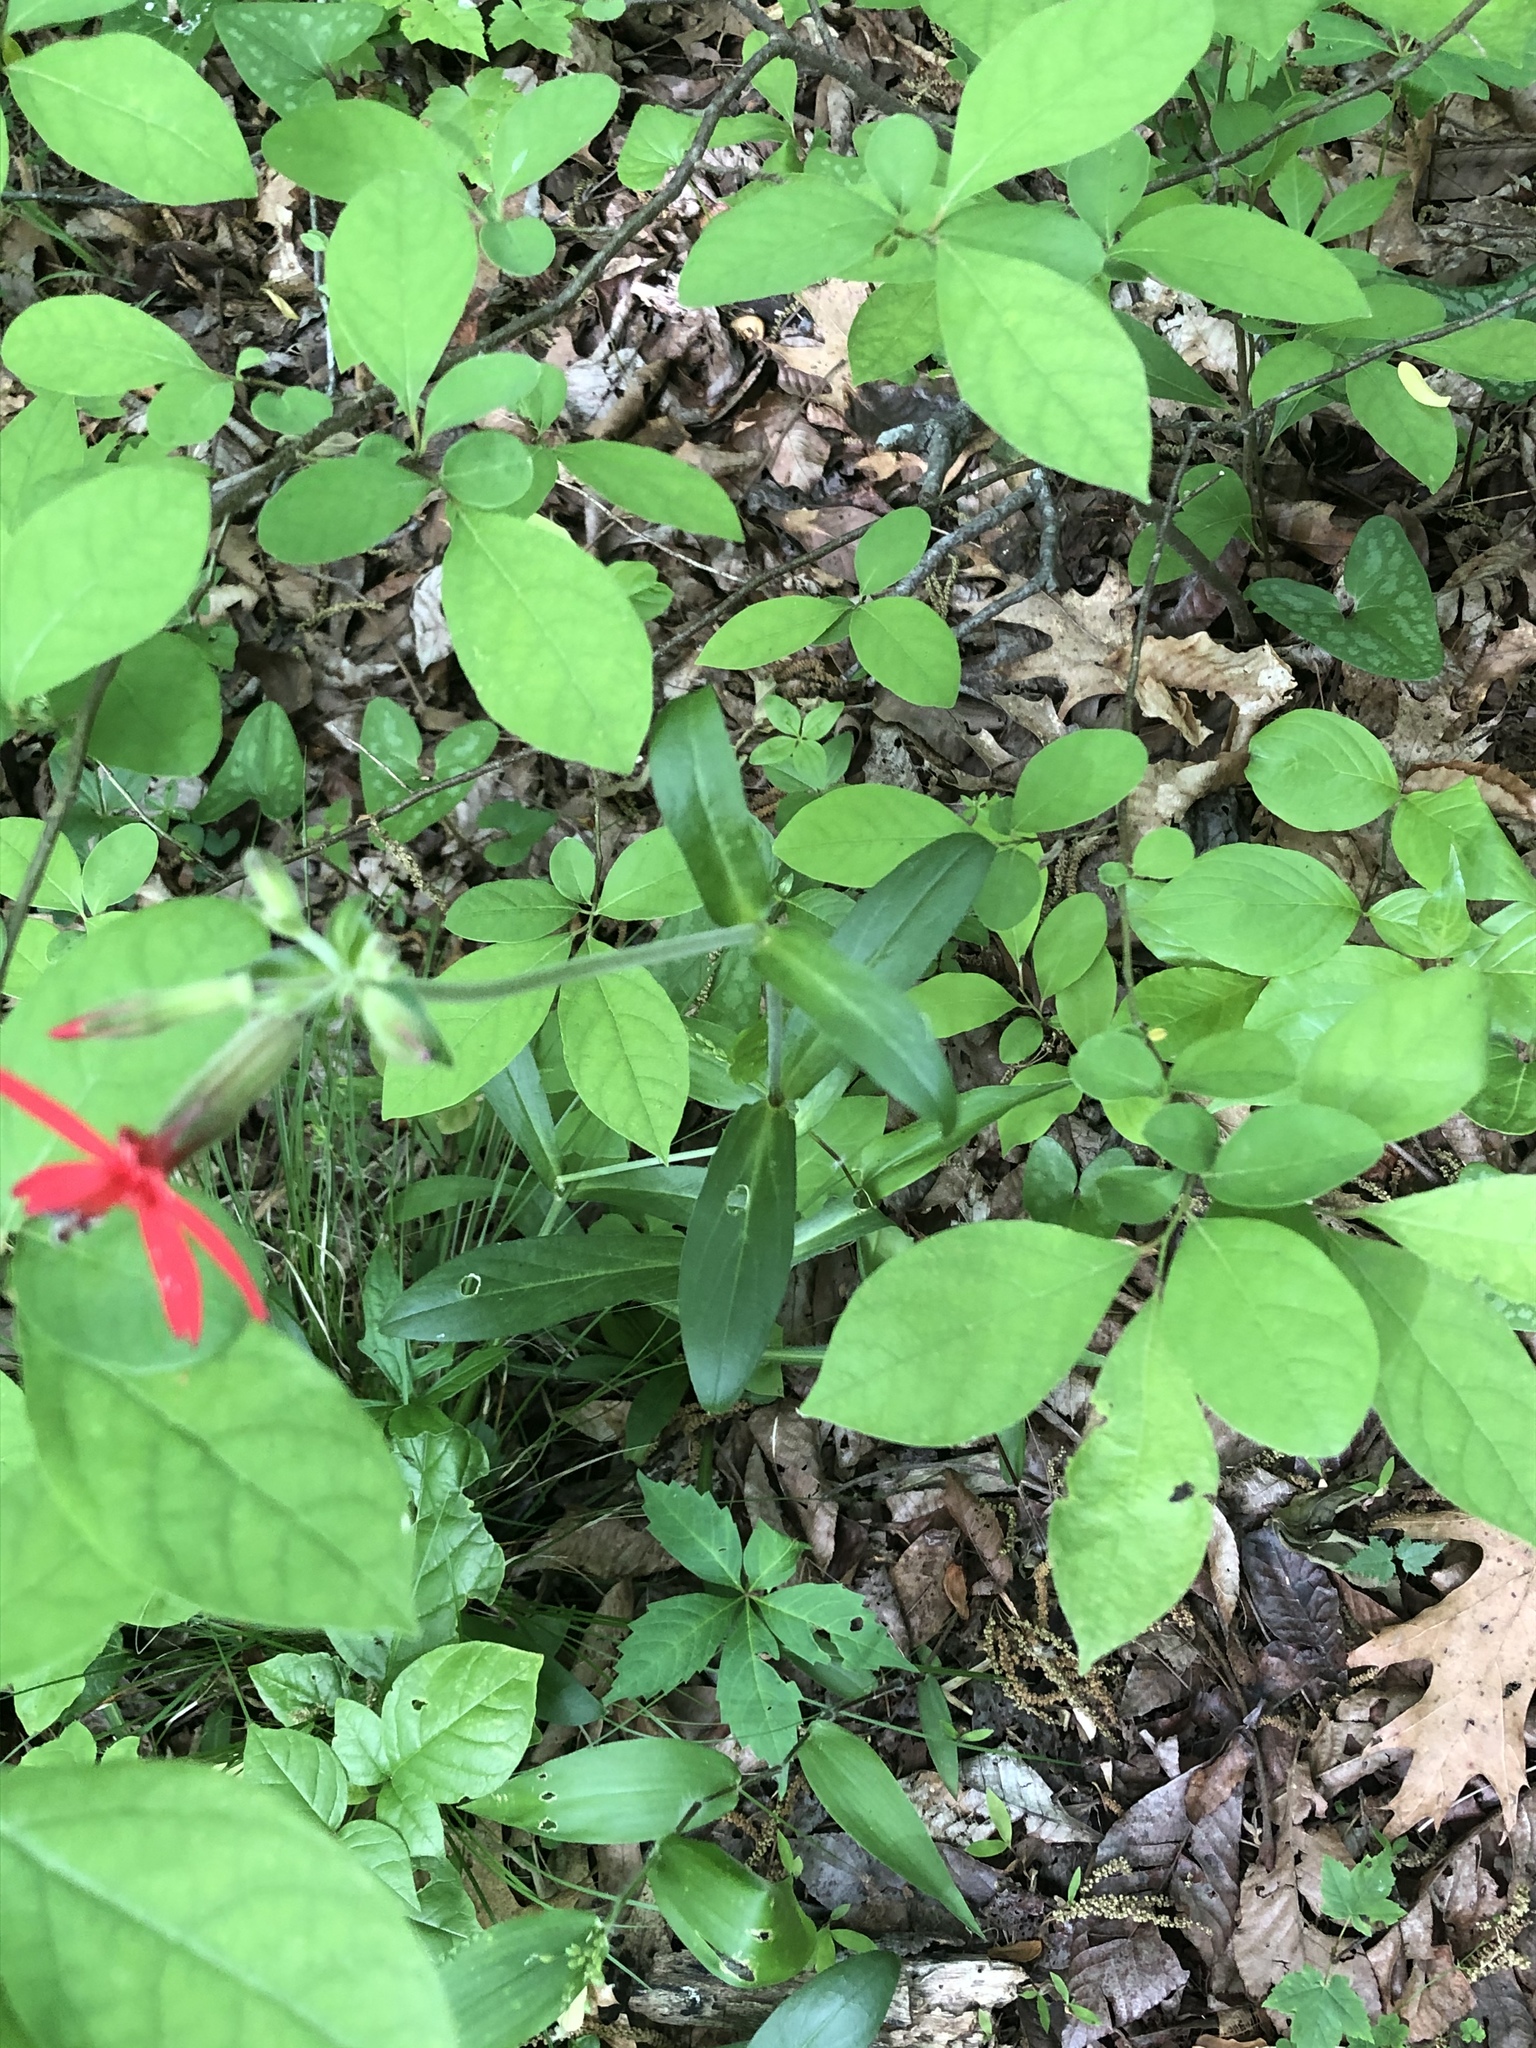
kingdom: Plantae
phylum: Tracheophyta
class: Magnoliopsida
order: Caryophyllales
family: Caryophyllaceae
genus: Silene
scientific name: Silene virginica
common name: Fire-pink
